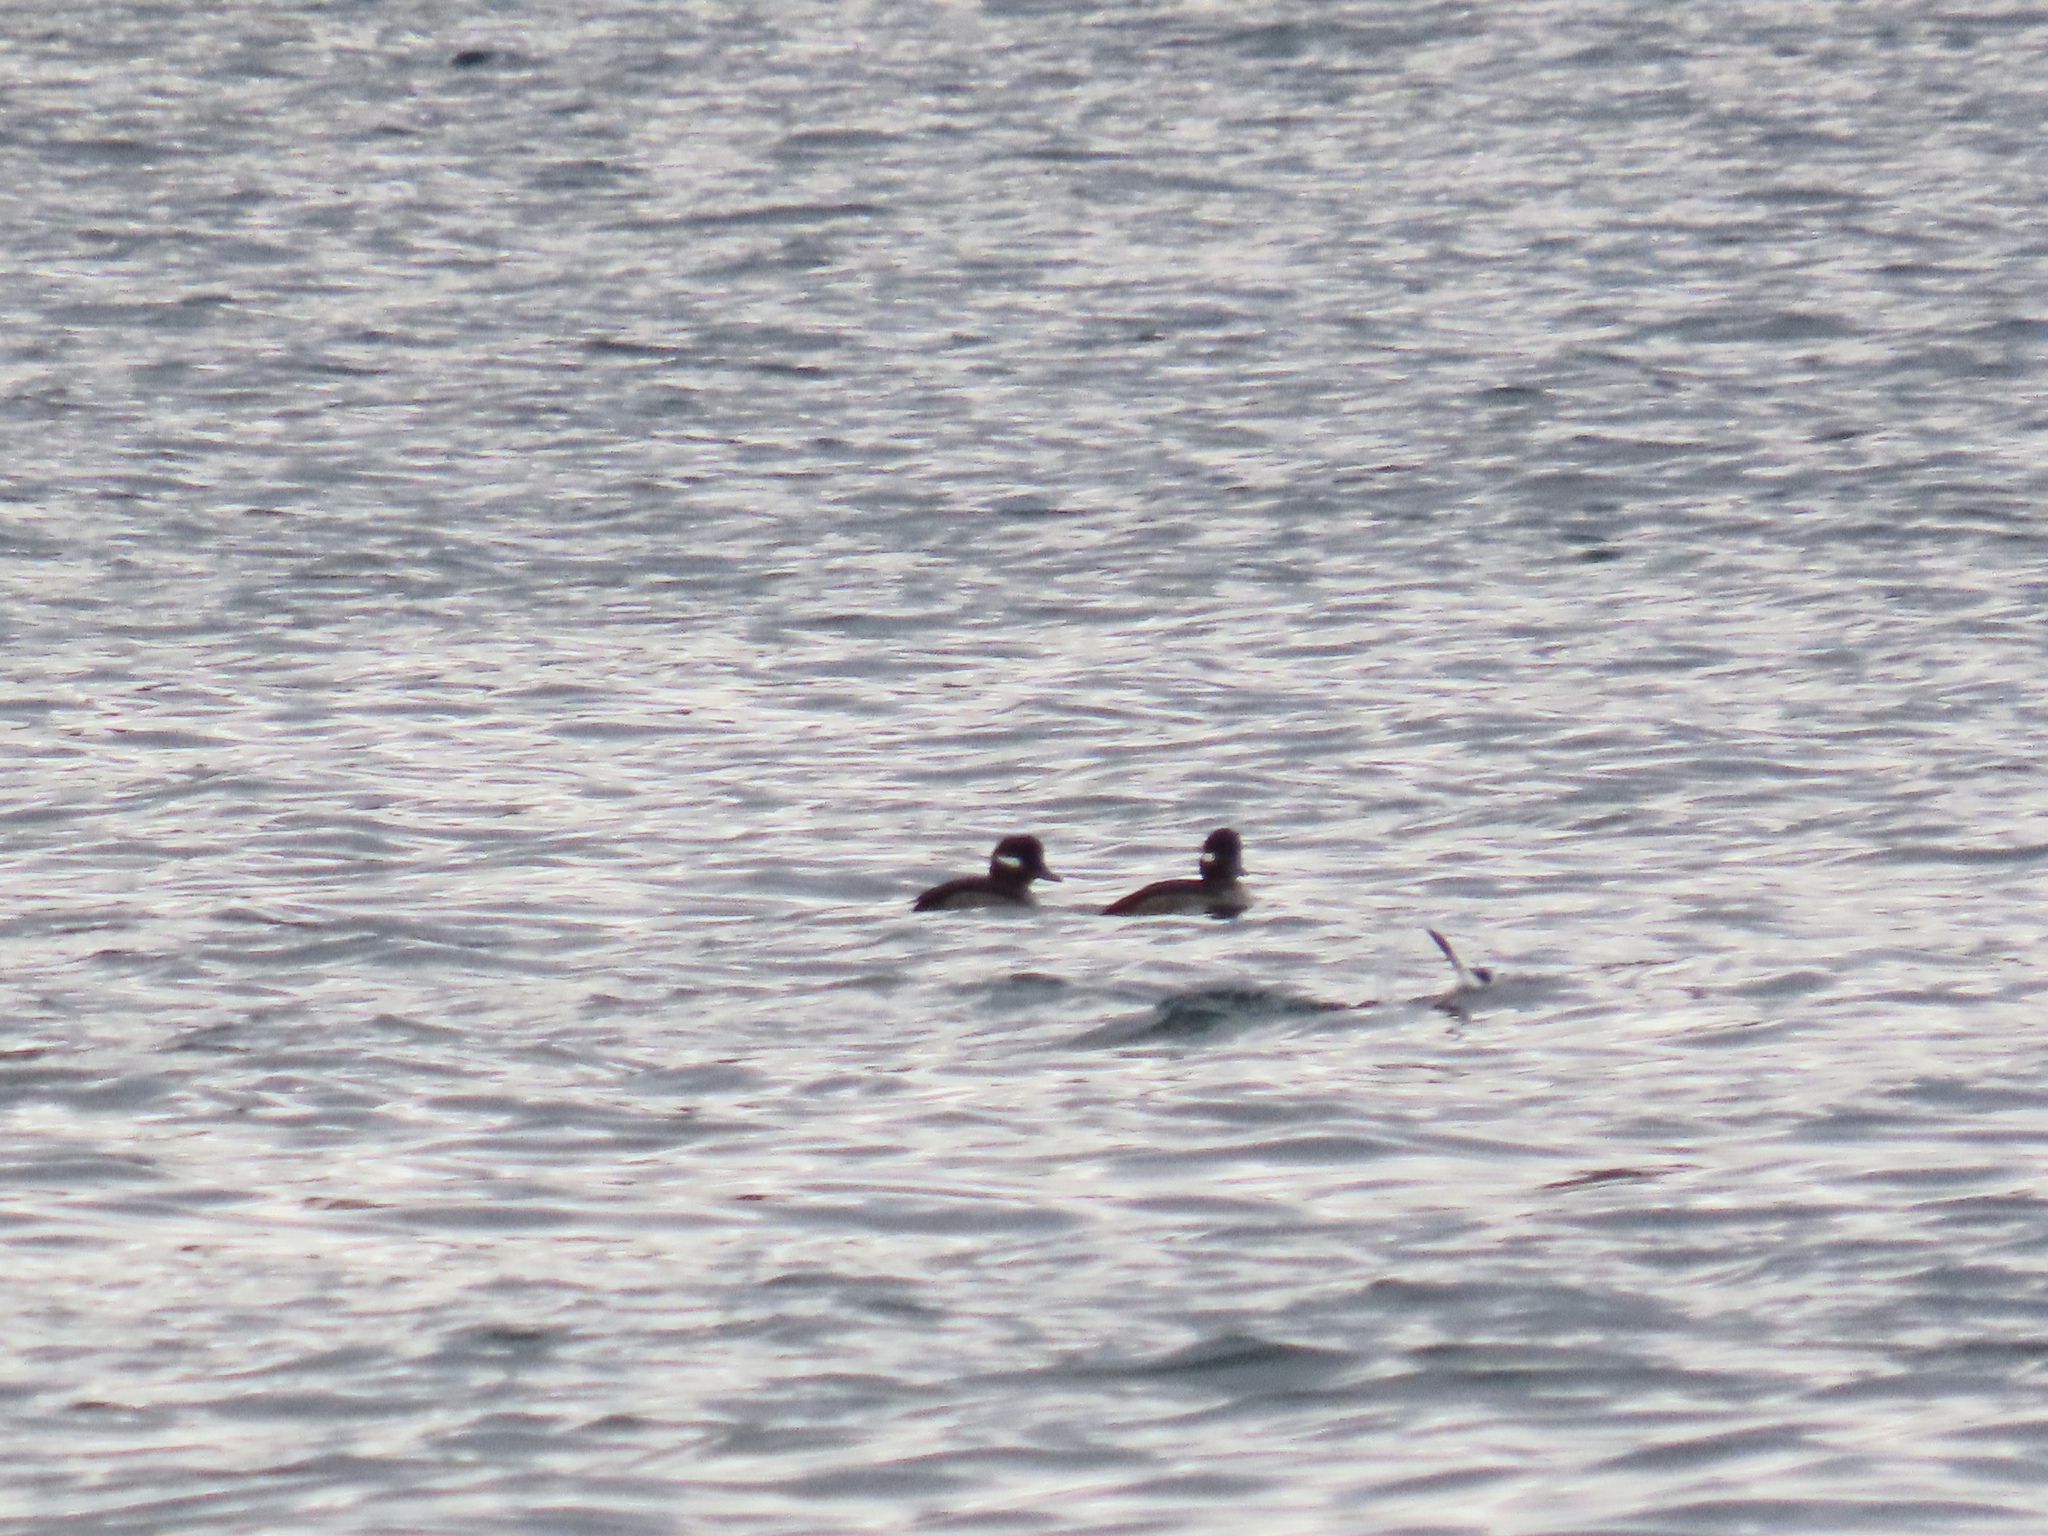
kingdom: Animalia
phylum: Chordata
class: Aves
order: Anseriformes
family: Anatidae
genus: Bucephala
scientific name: Bucephala albeola
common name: Bufflehead
